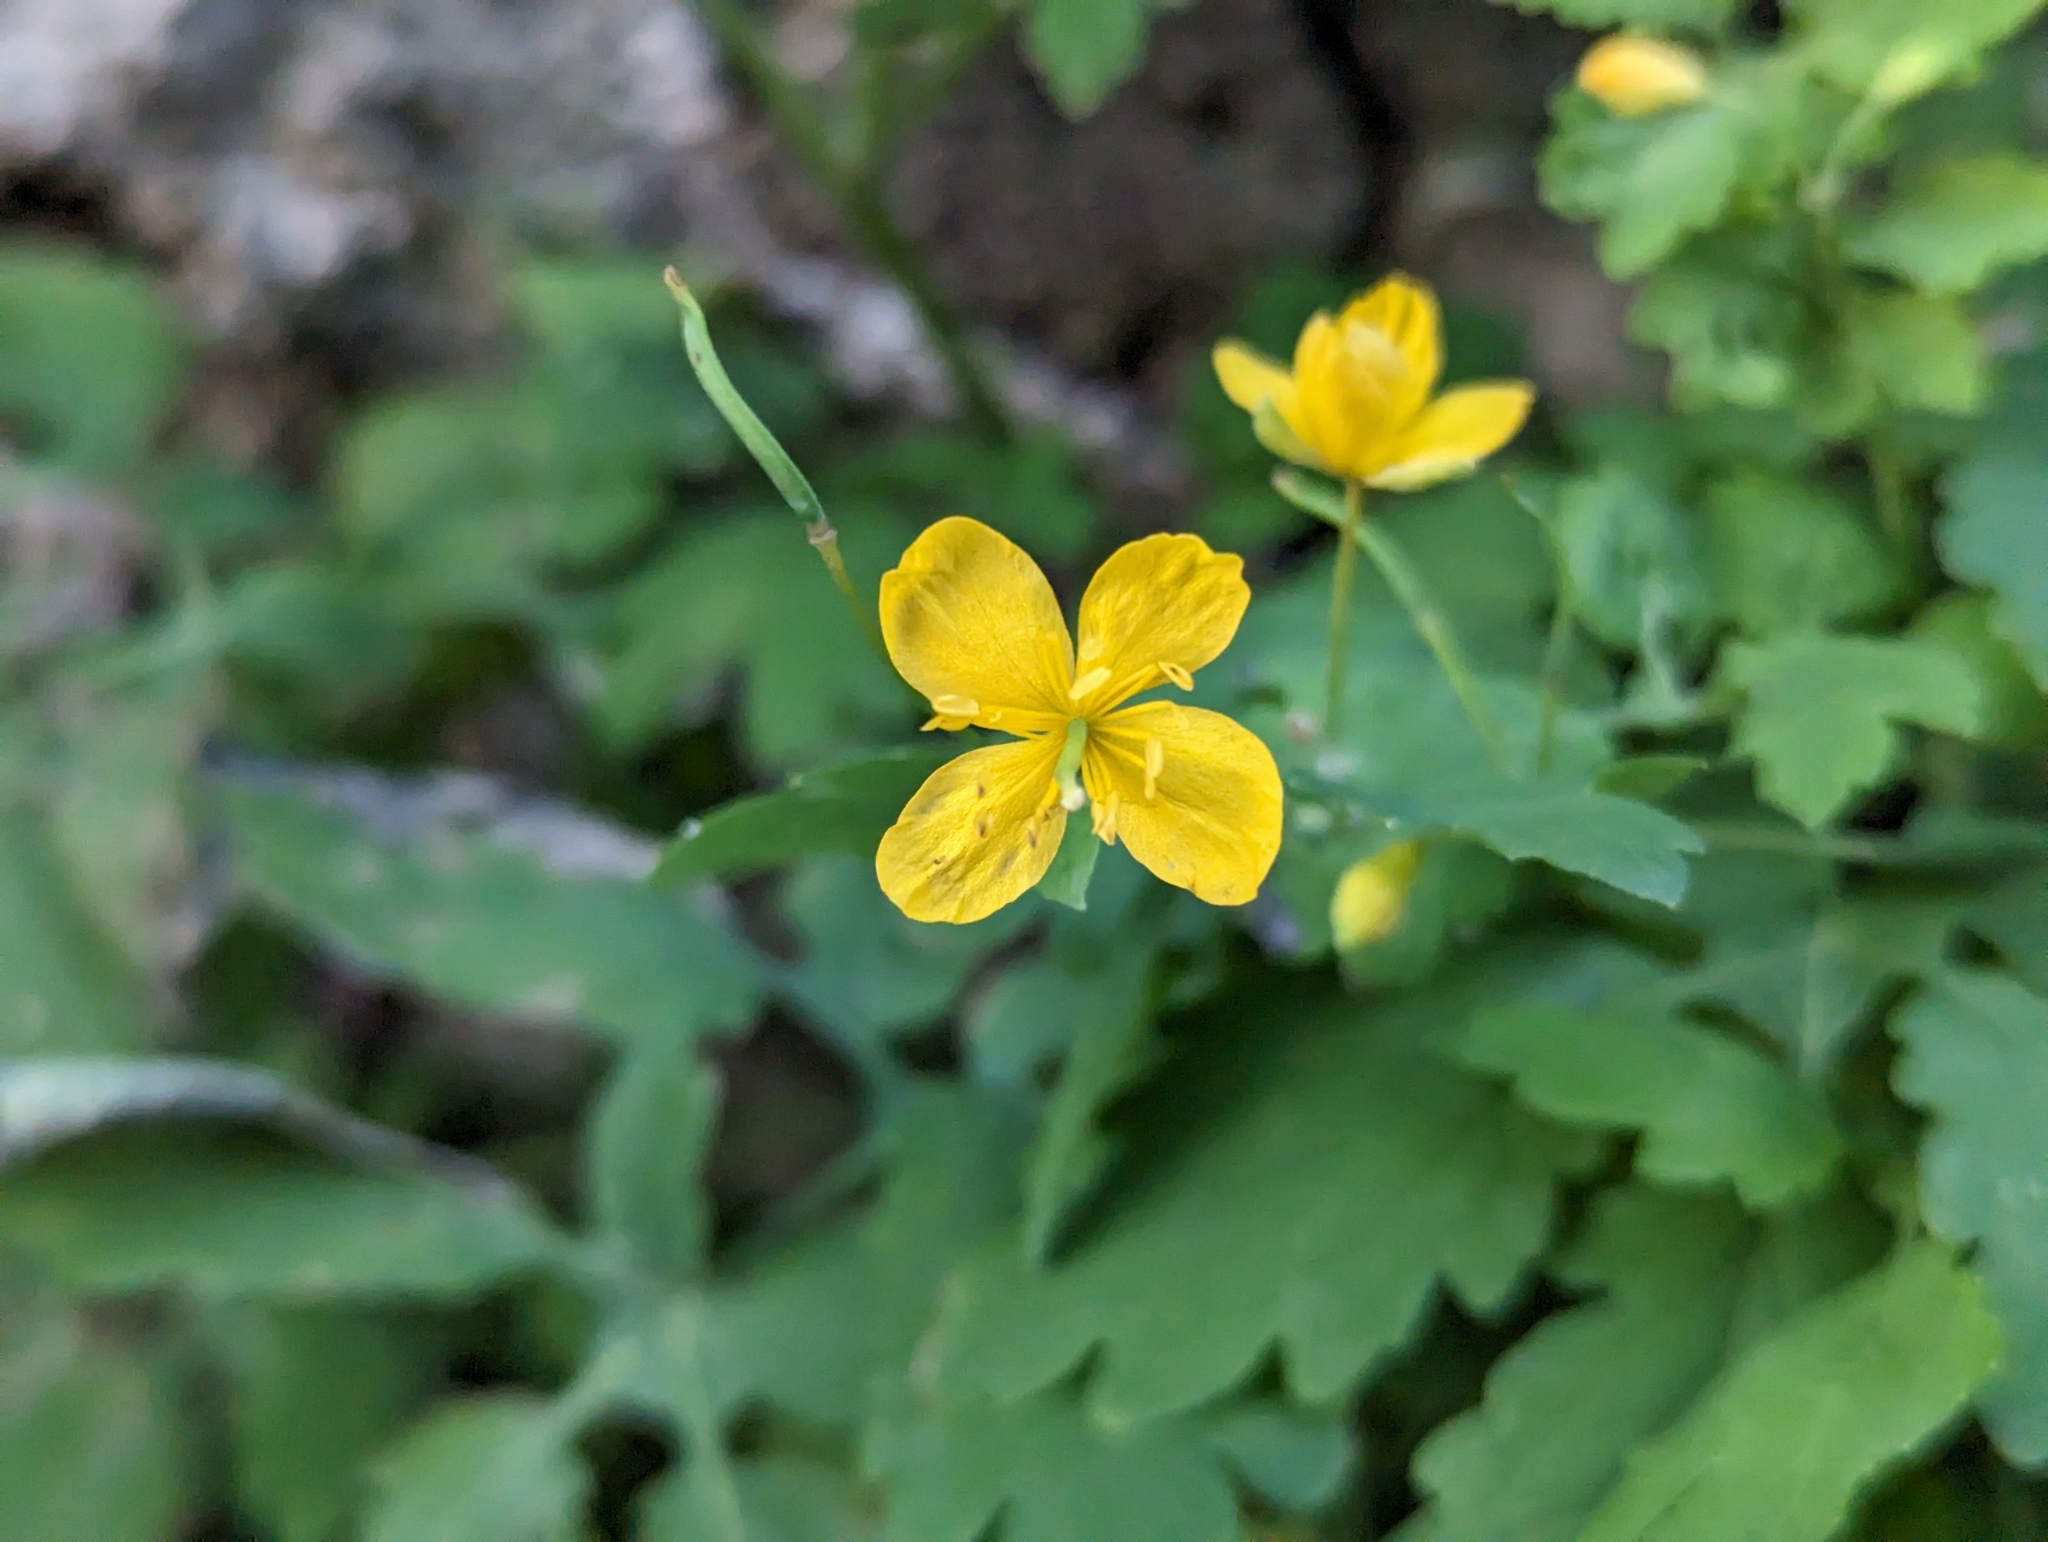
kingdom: Plantae
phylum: Tracheophyta
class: Magnoliopsida
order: Ranunculales
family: Papaveraceae
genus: Chelidonium
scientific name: Chelidonium majus
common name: Greater celandine
